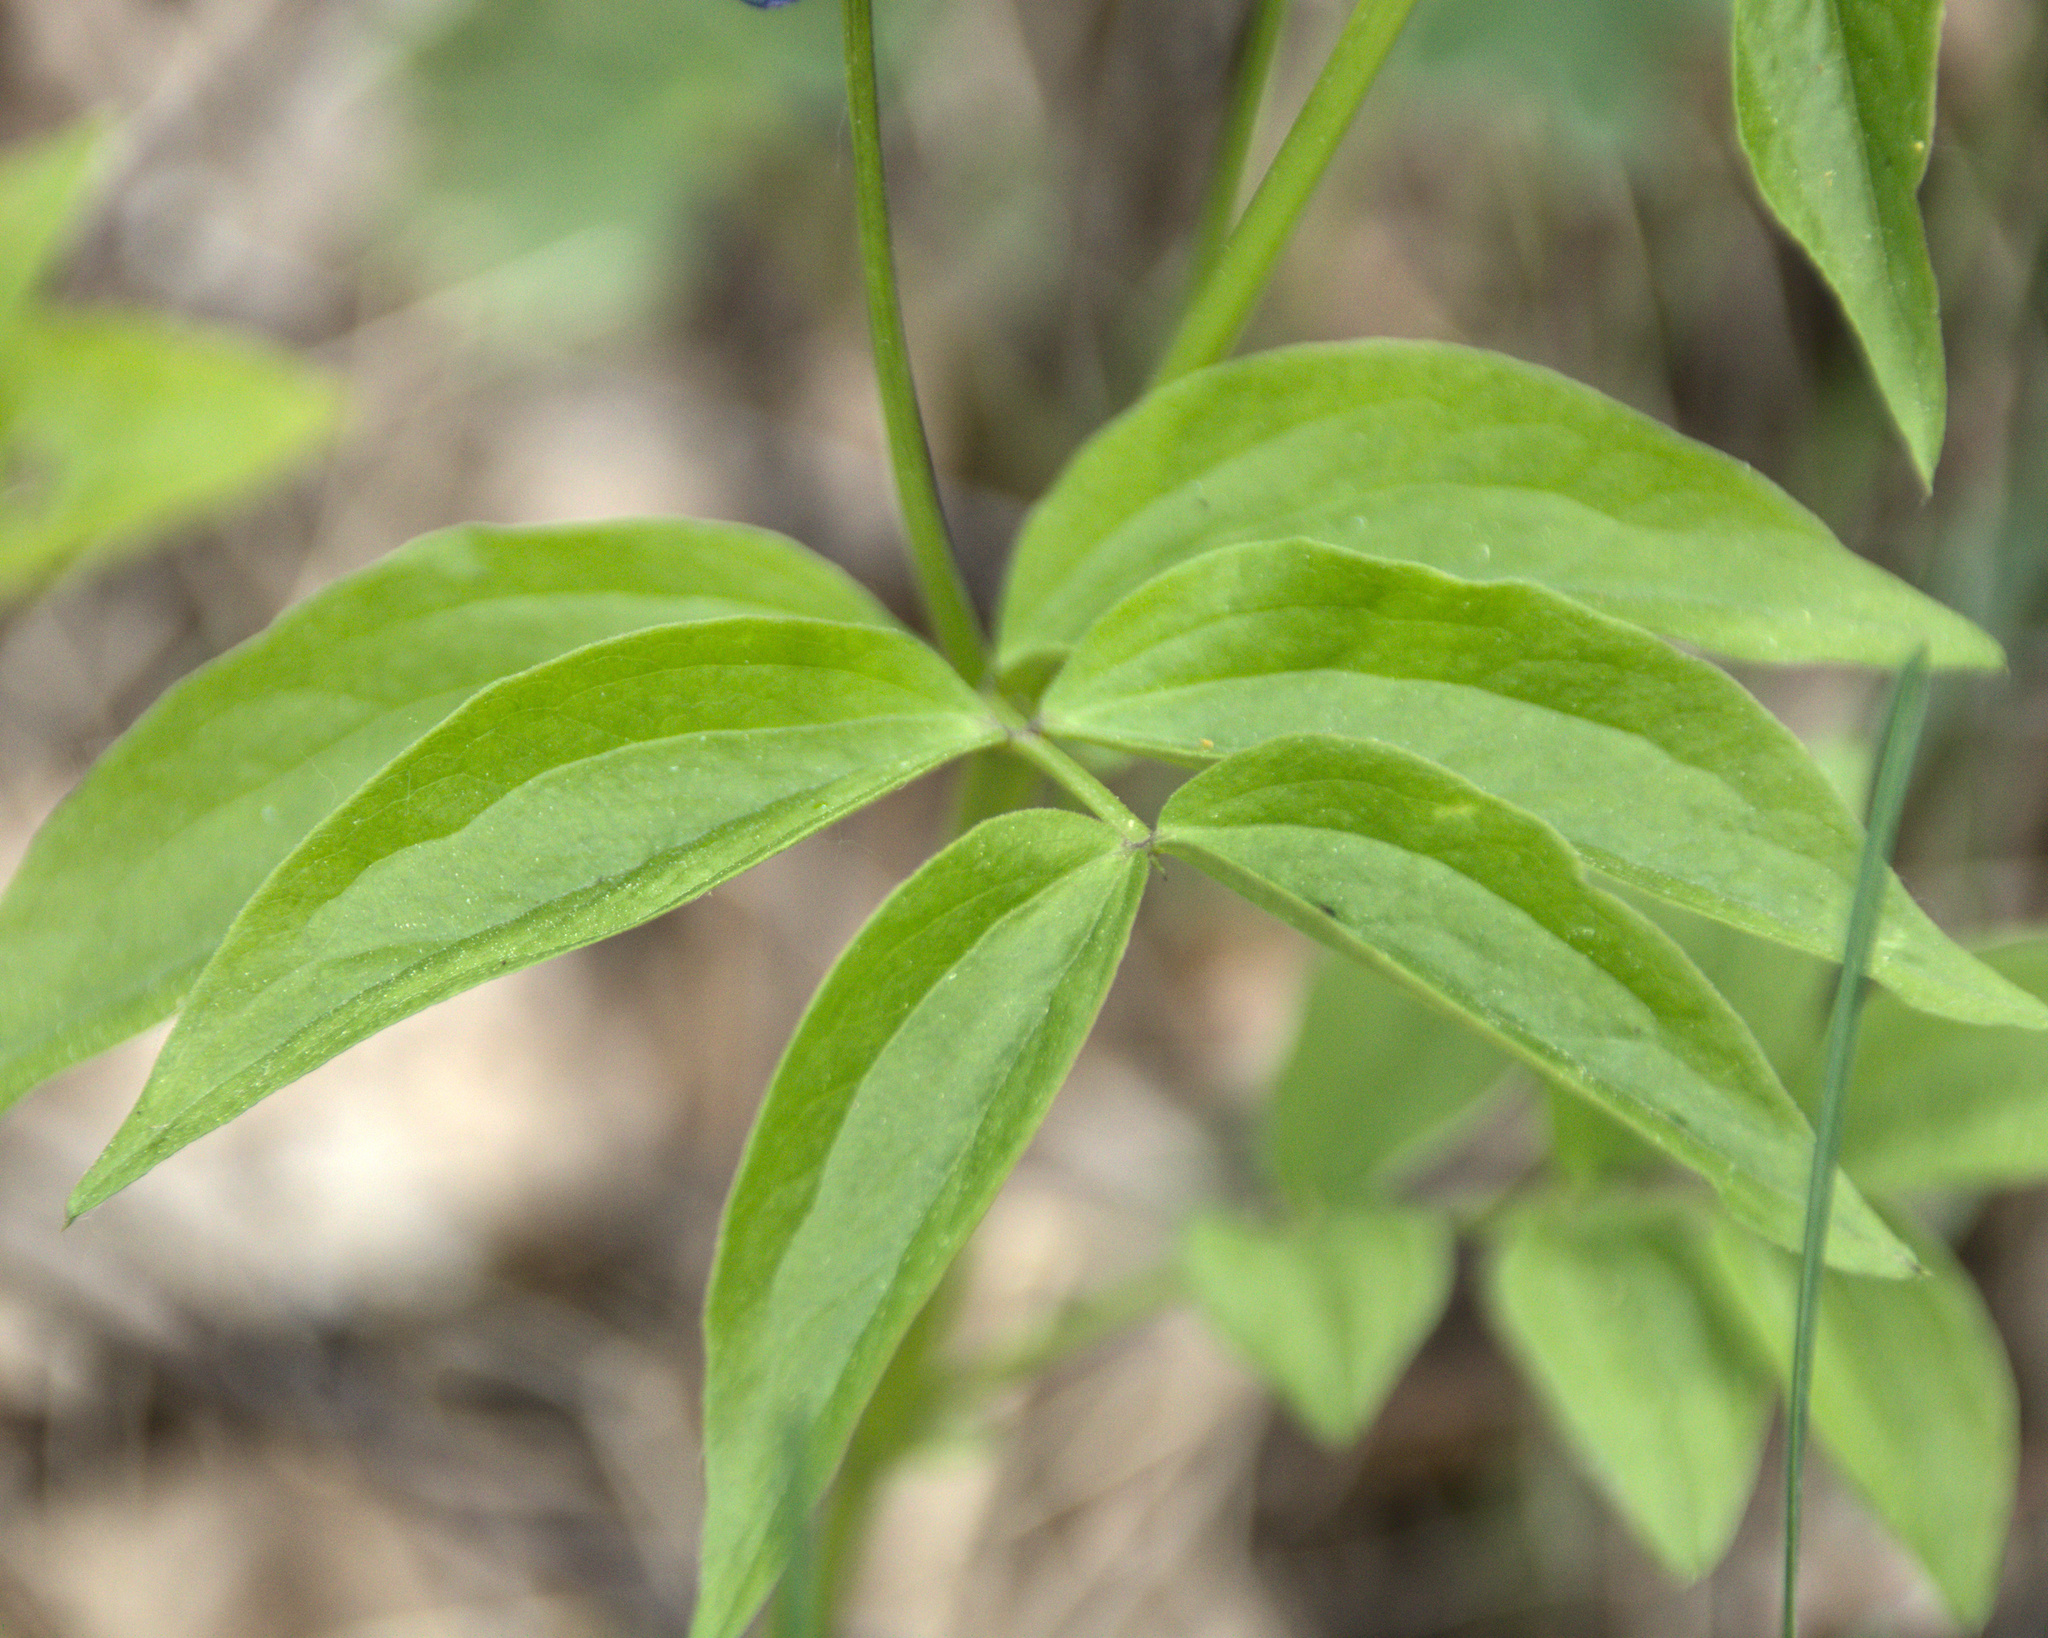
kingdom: Plantae
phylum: Tracheophyta
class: Magnoliopsida
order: Fabales
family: Fabaceae
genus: Lathyrus
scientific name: Lathyrus vernus
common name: Spring pea
